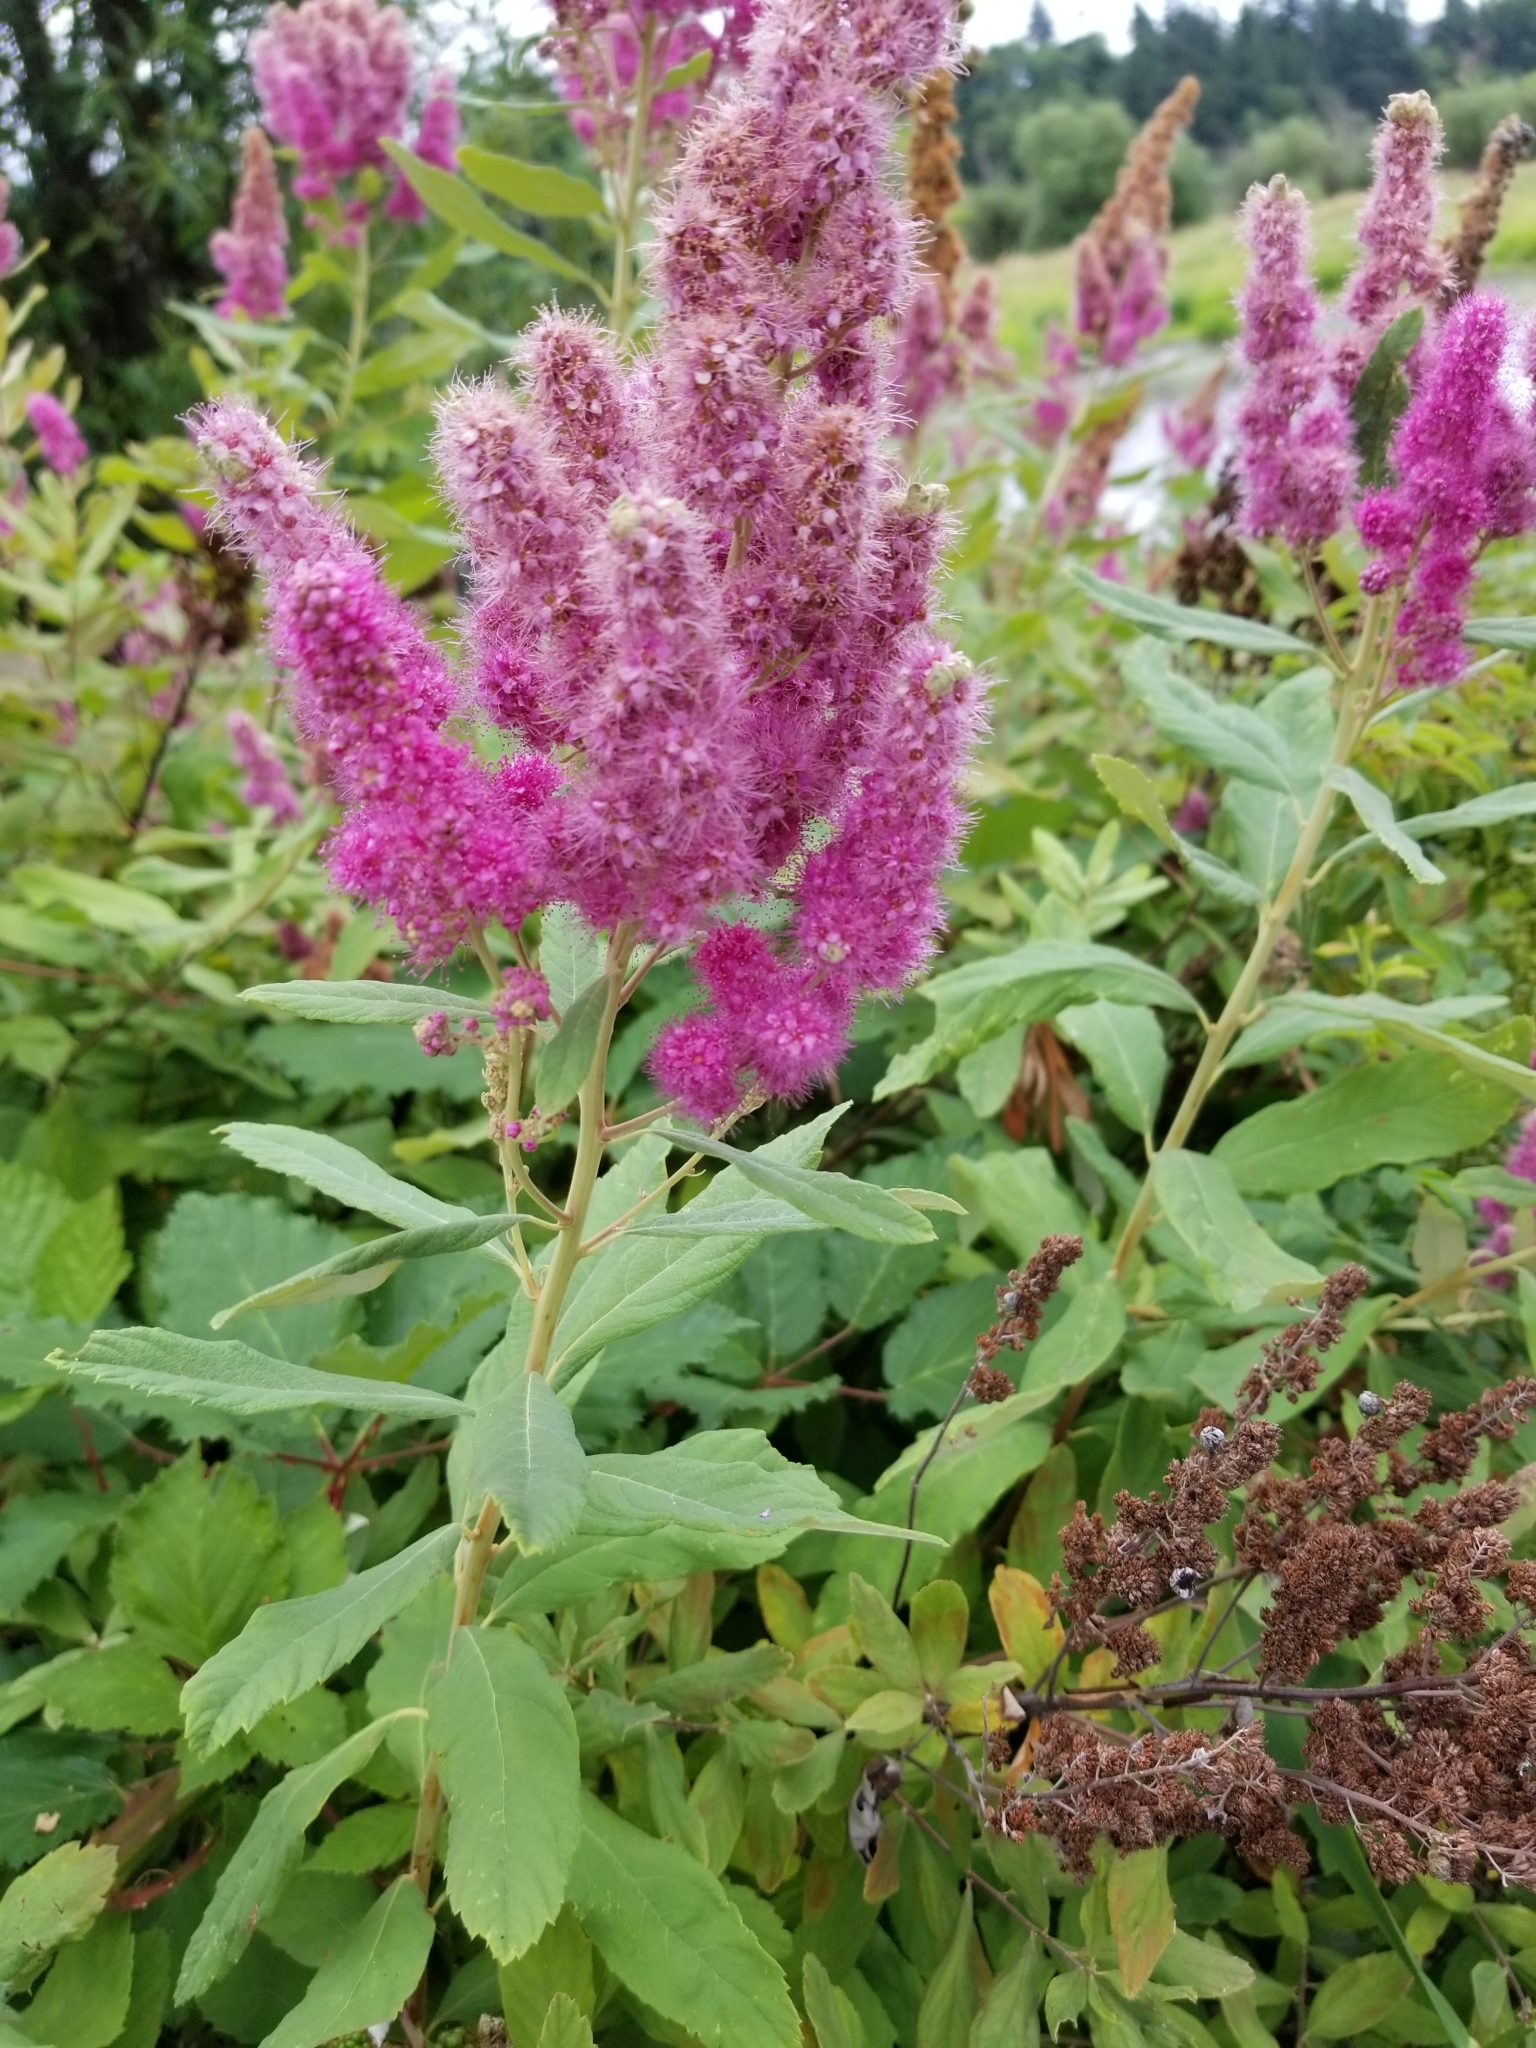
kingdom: Plantae
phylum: Tracheophyta
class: Magnoliopsida
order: Rosales
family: Rosaceae
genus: Spiraea
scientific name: Spiraea douglasii
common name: Steeplebush
